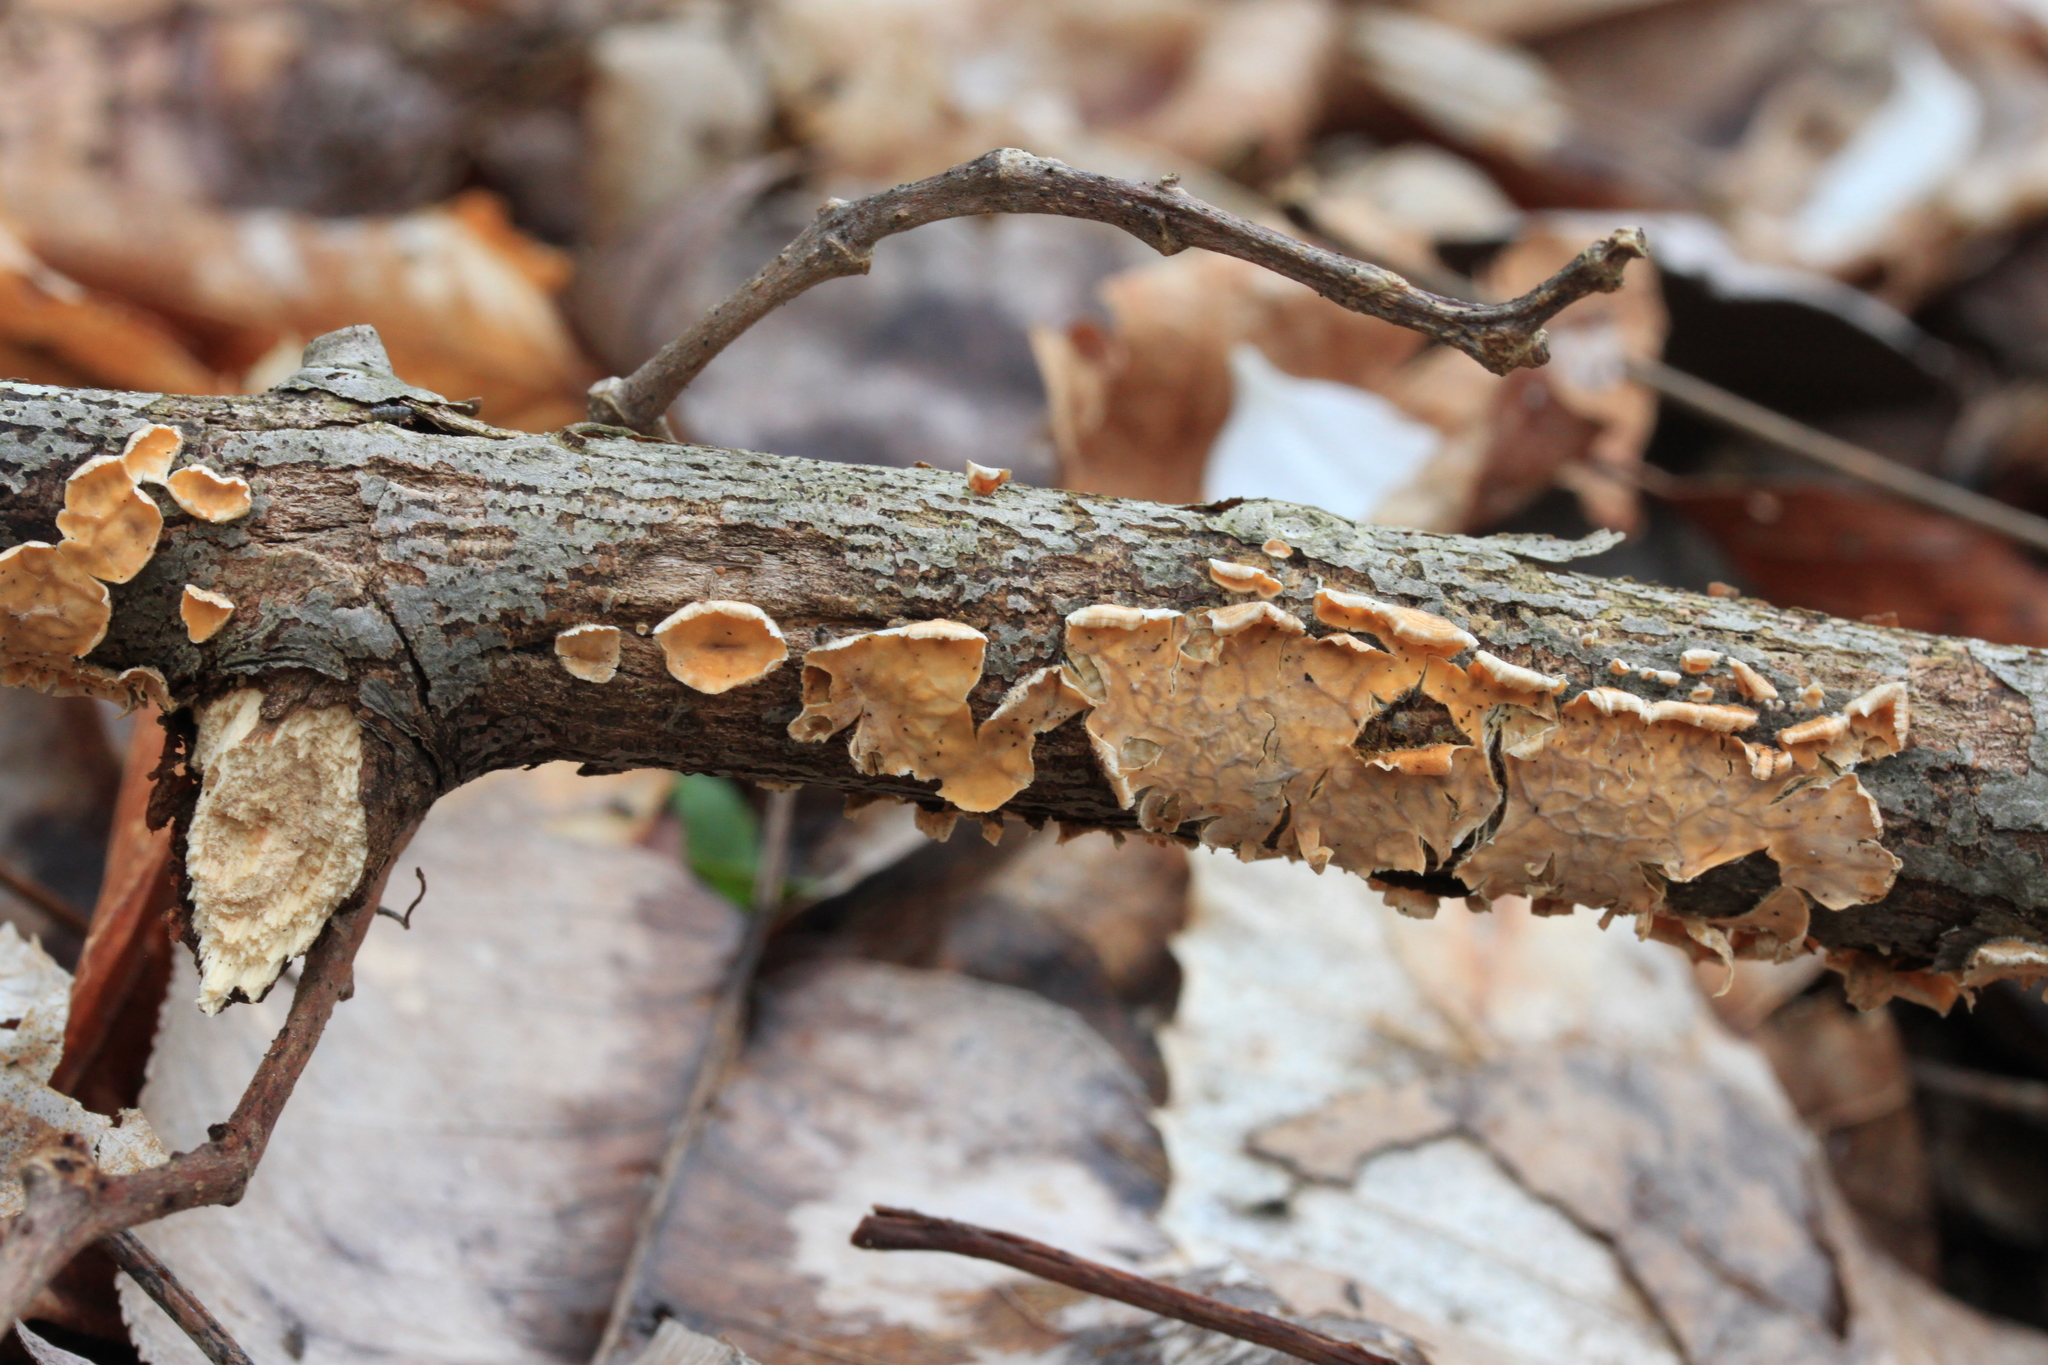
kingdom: Fungi
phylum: Basidiomycota
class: Agaricomycetes
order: Russulales
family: Stereaceae
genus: Stereum
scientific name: Stereum complicatum
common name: Crowded parchment
